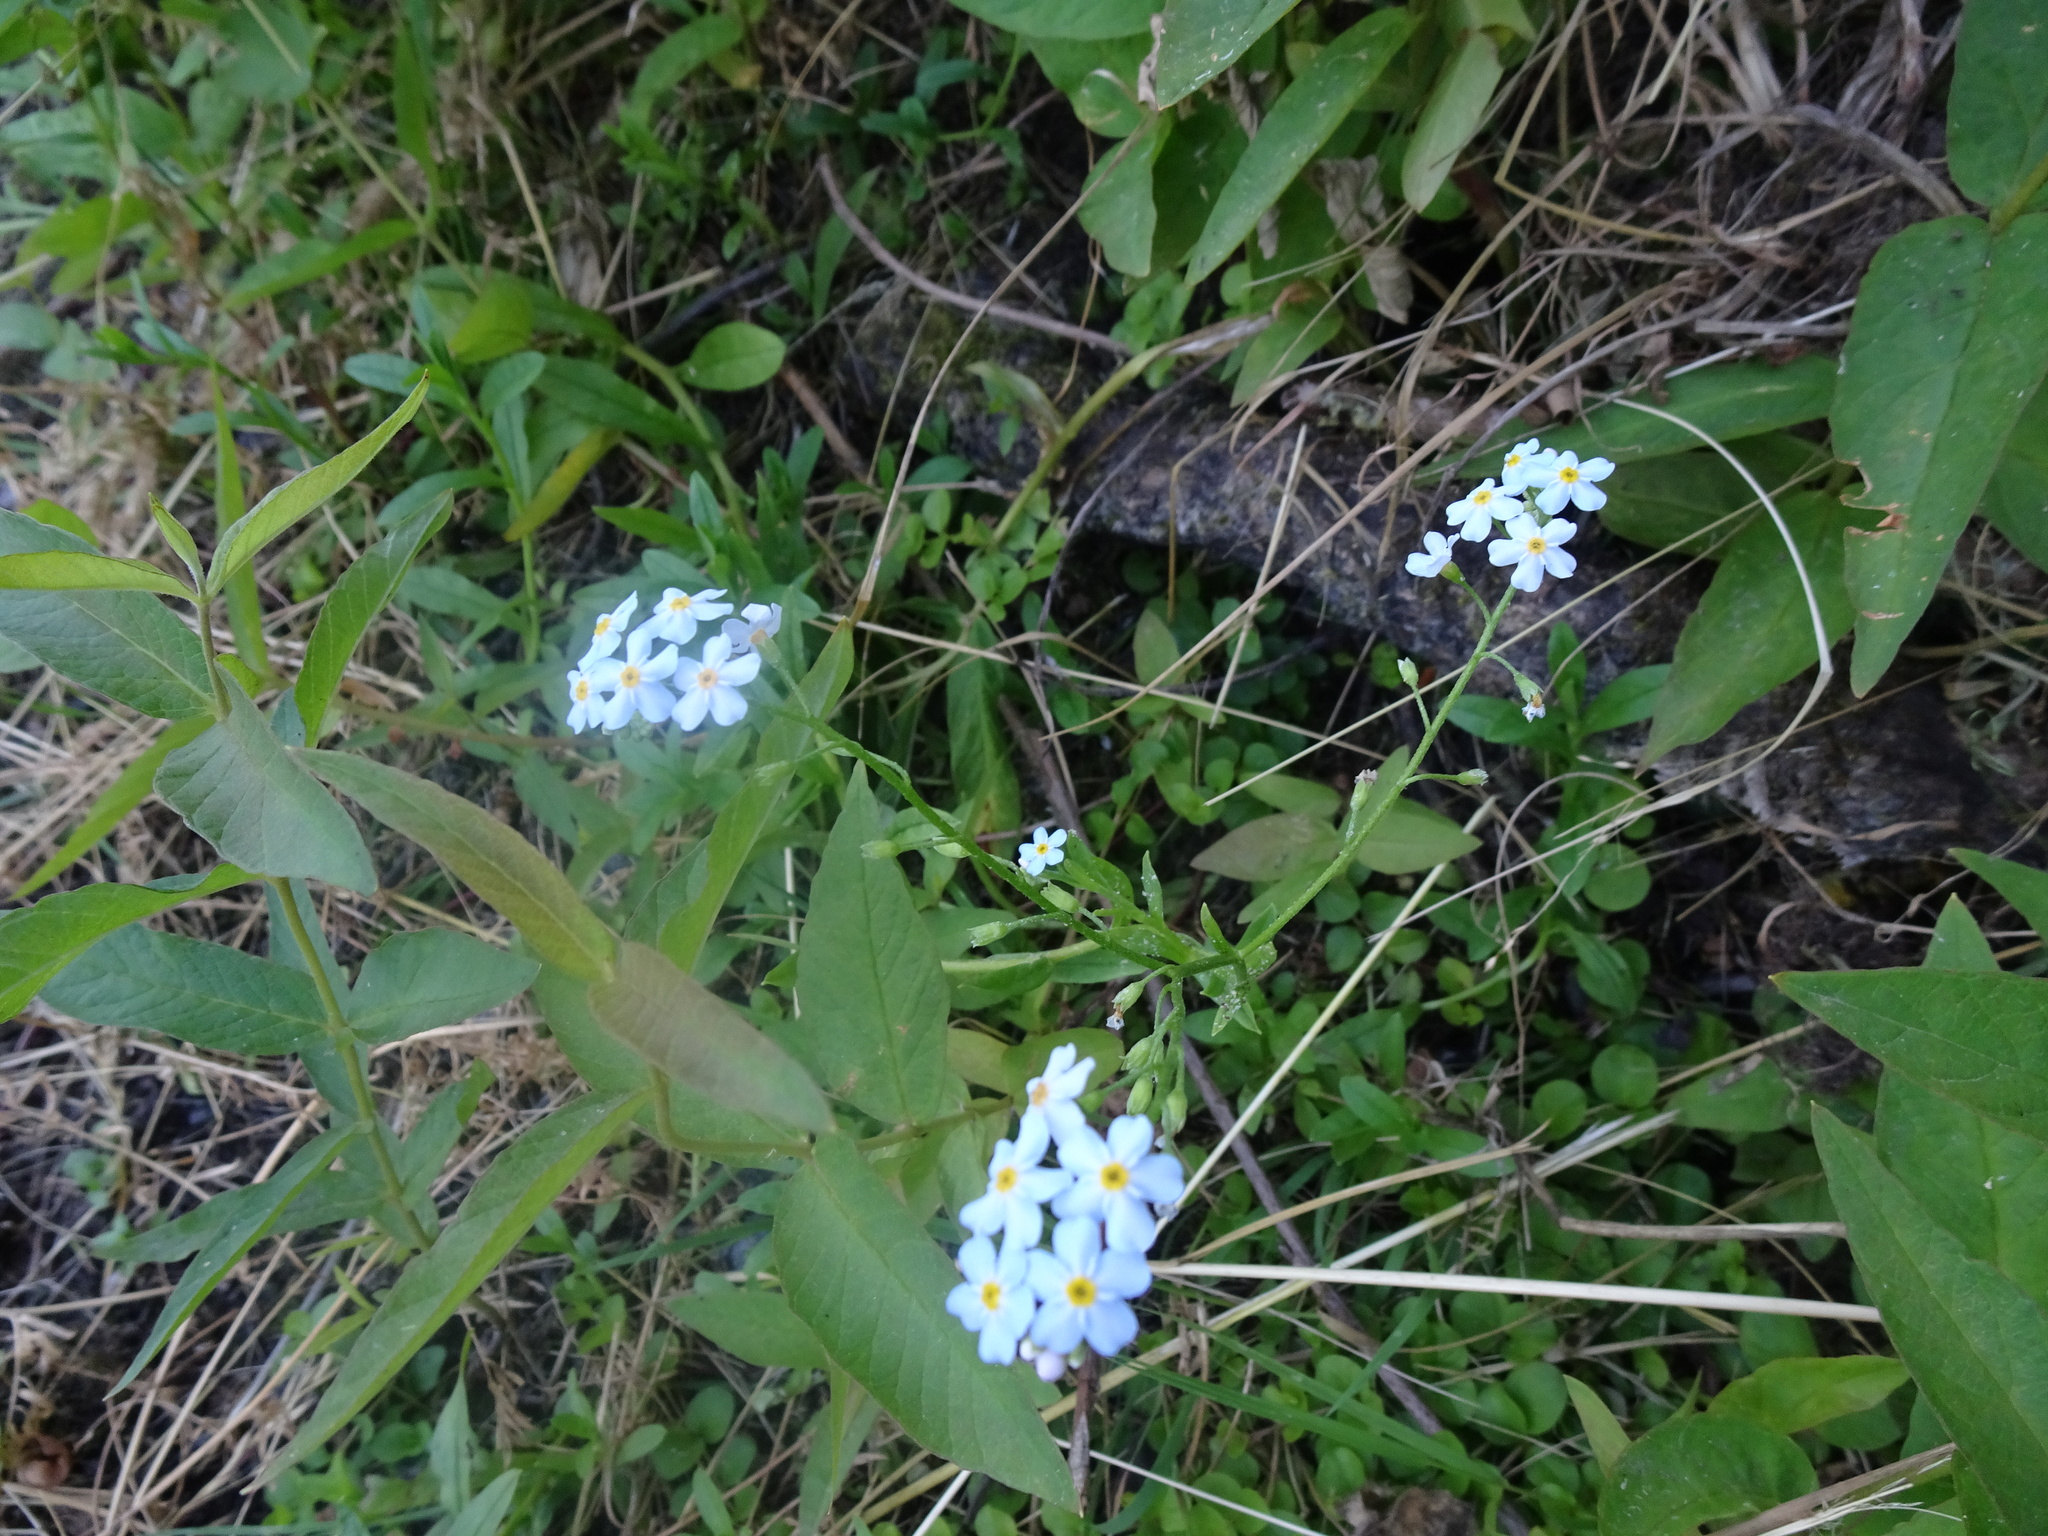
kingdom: Plantae
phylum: Tracheophyta
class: Magnoliopsida
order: Boraginales
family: Boraginaceae
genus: Myosotis
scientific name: Myosotis scorpioides
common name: Water forget-me-not
